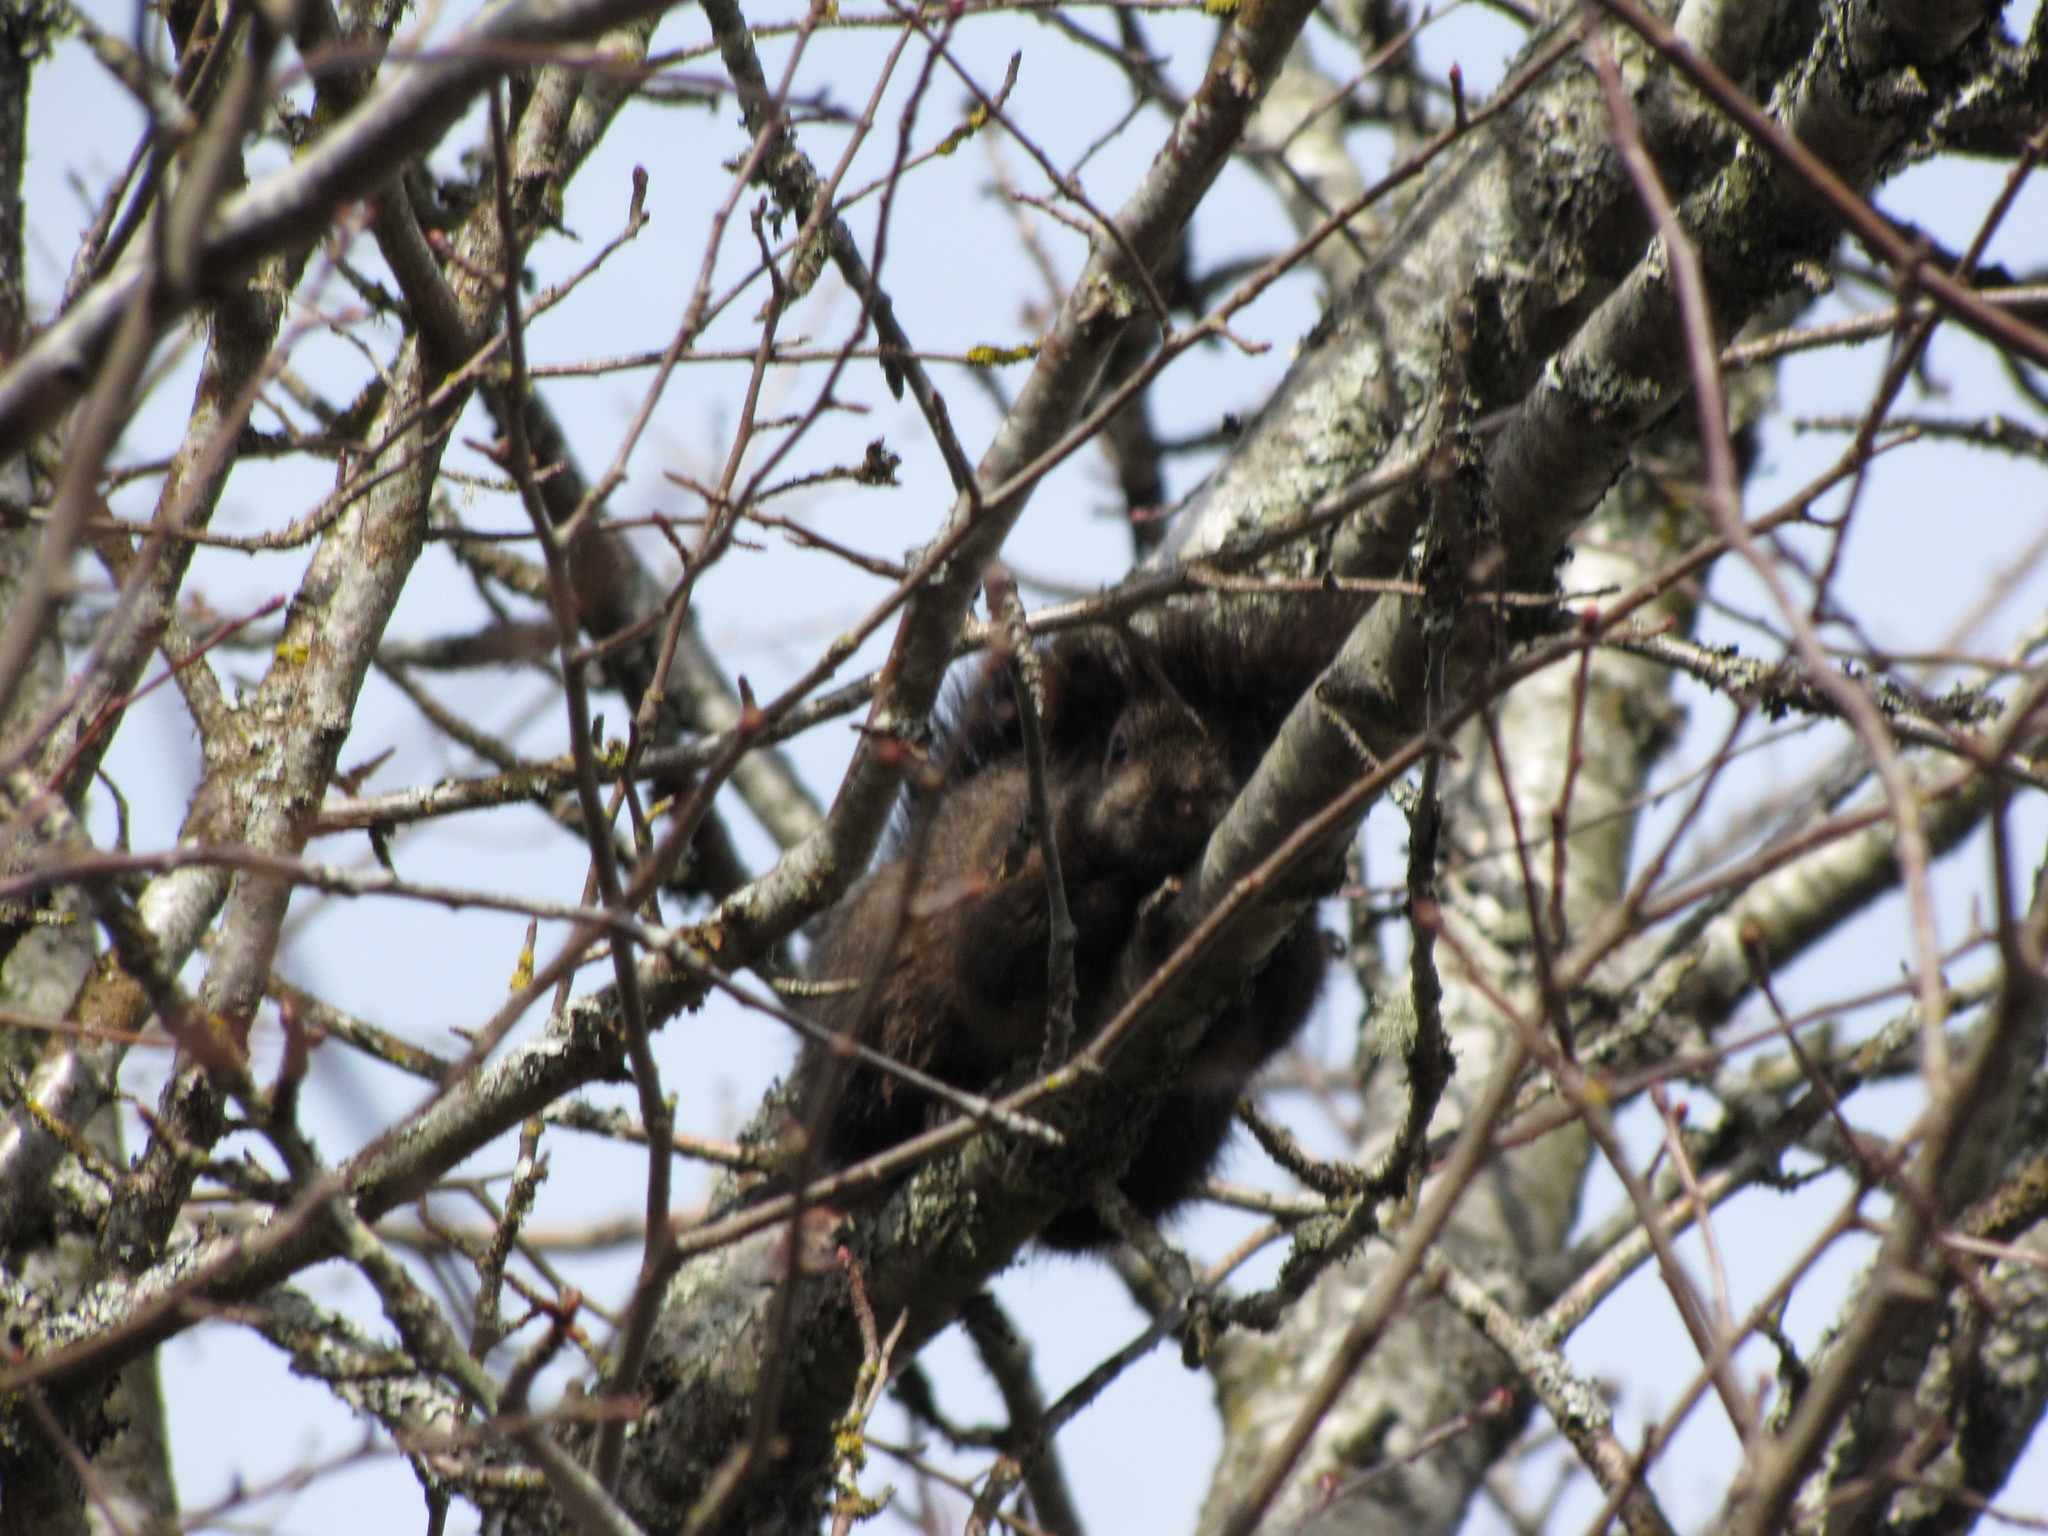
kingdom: Animalia
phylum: Chordata
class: Mammalia
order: Rodentia
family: Sciuridae
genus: Sciurus
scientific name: Sciurus carolinensis
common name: Eastern gray squirrel
